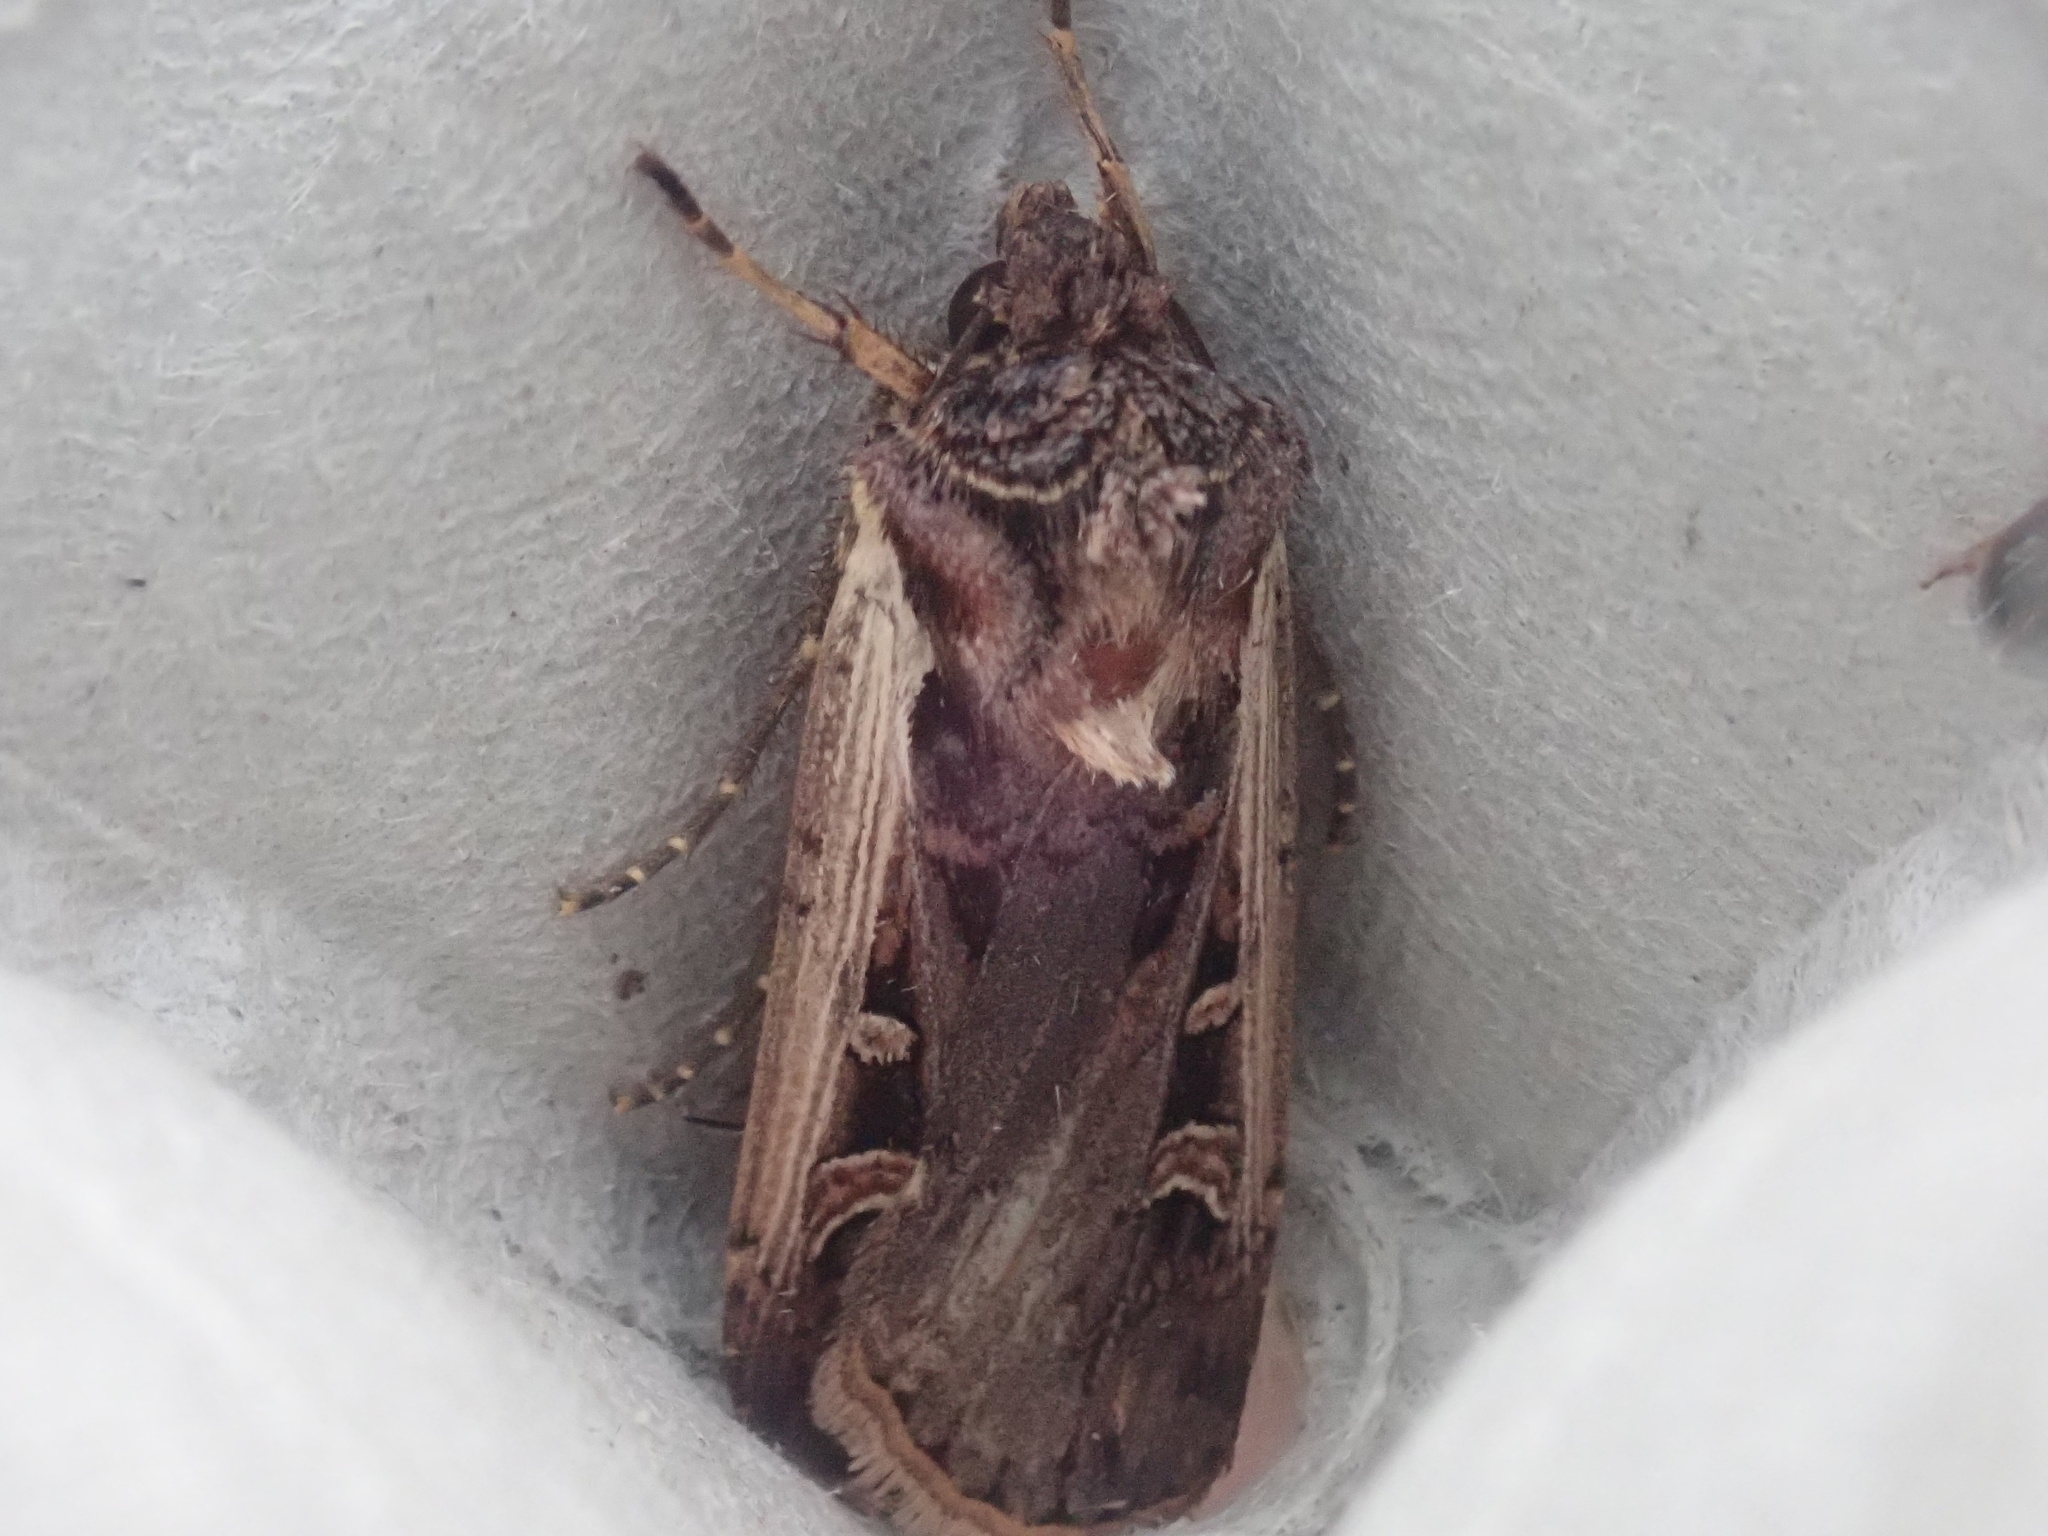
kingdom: Animalia
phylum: Arthropoda
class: Insecta
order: Lepidoptera
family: Noctuidae
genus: Striacosta
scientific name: Striacosta albicosta
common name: Western bean cutworm moth
